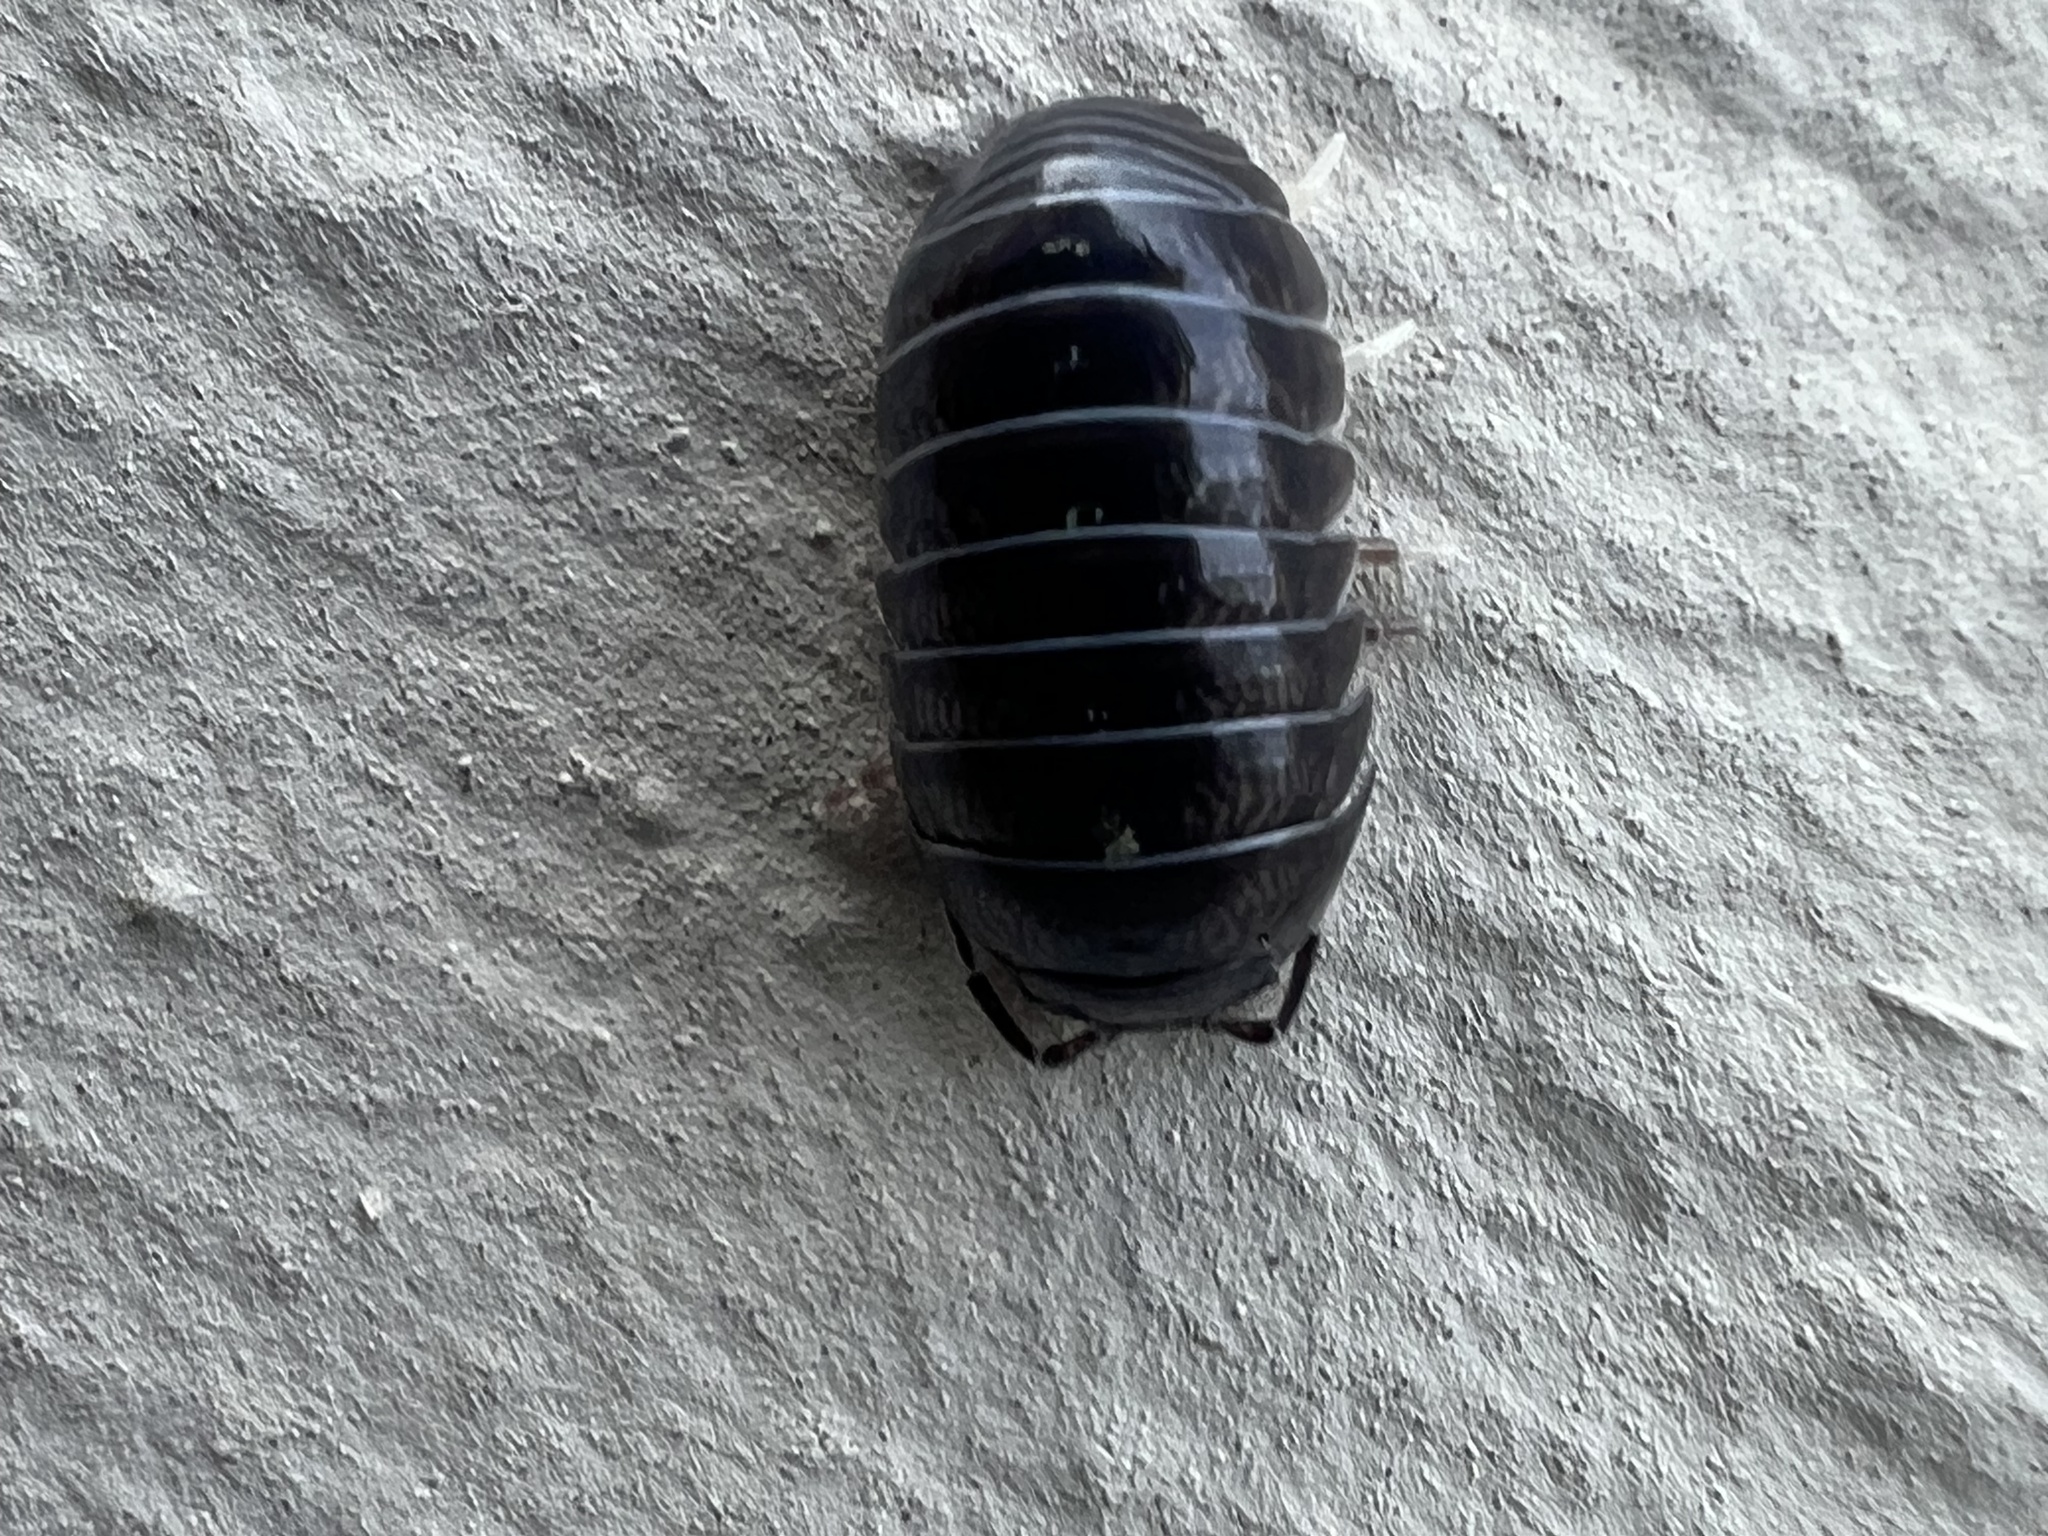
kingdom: Animalia
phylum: Arthropoda
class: Malacostraca
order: Isopoda
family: Armadillidiidae
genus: Armadillidium
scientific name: Armadillidium vulgare
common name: Common pill woodlouse
